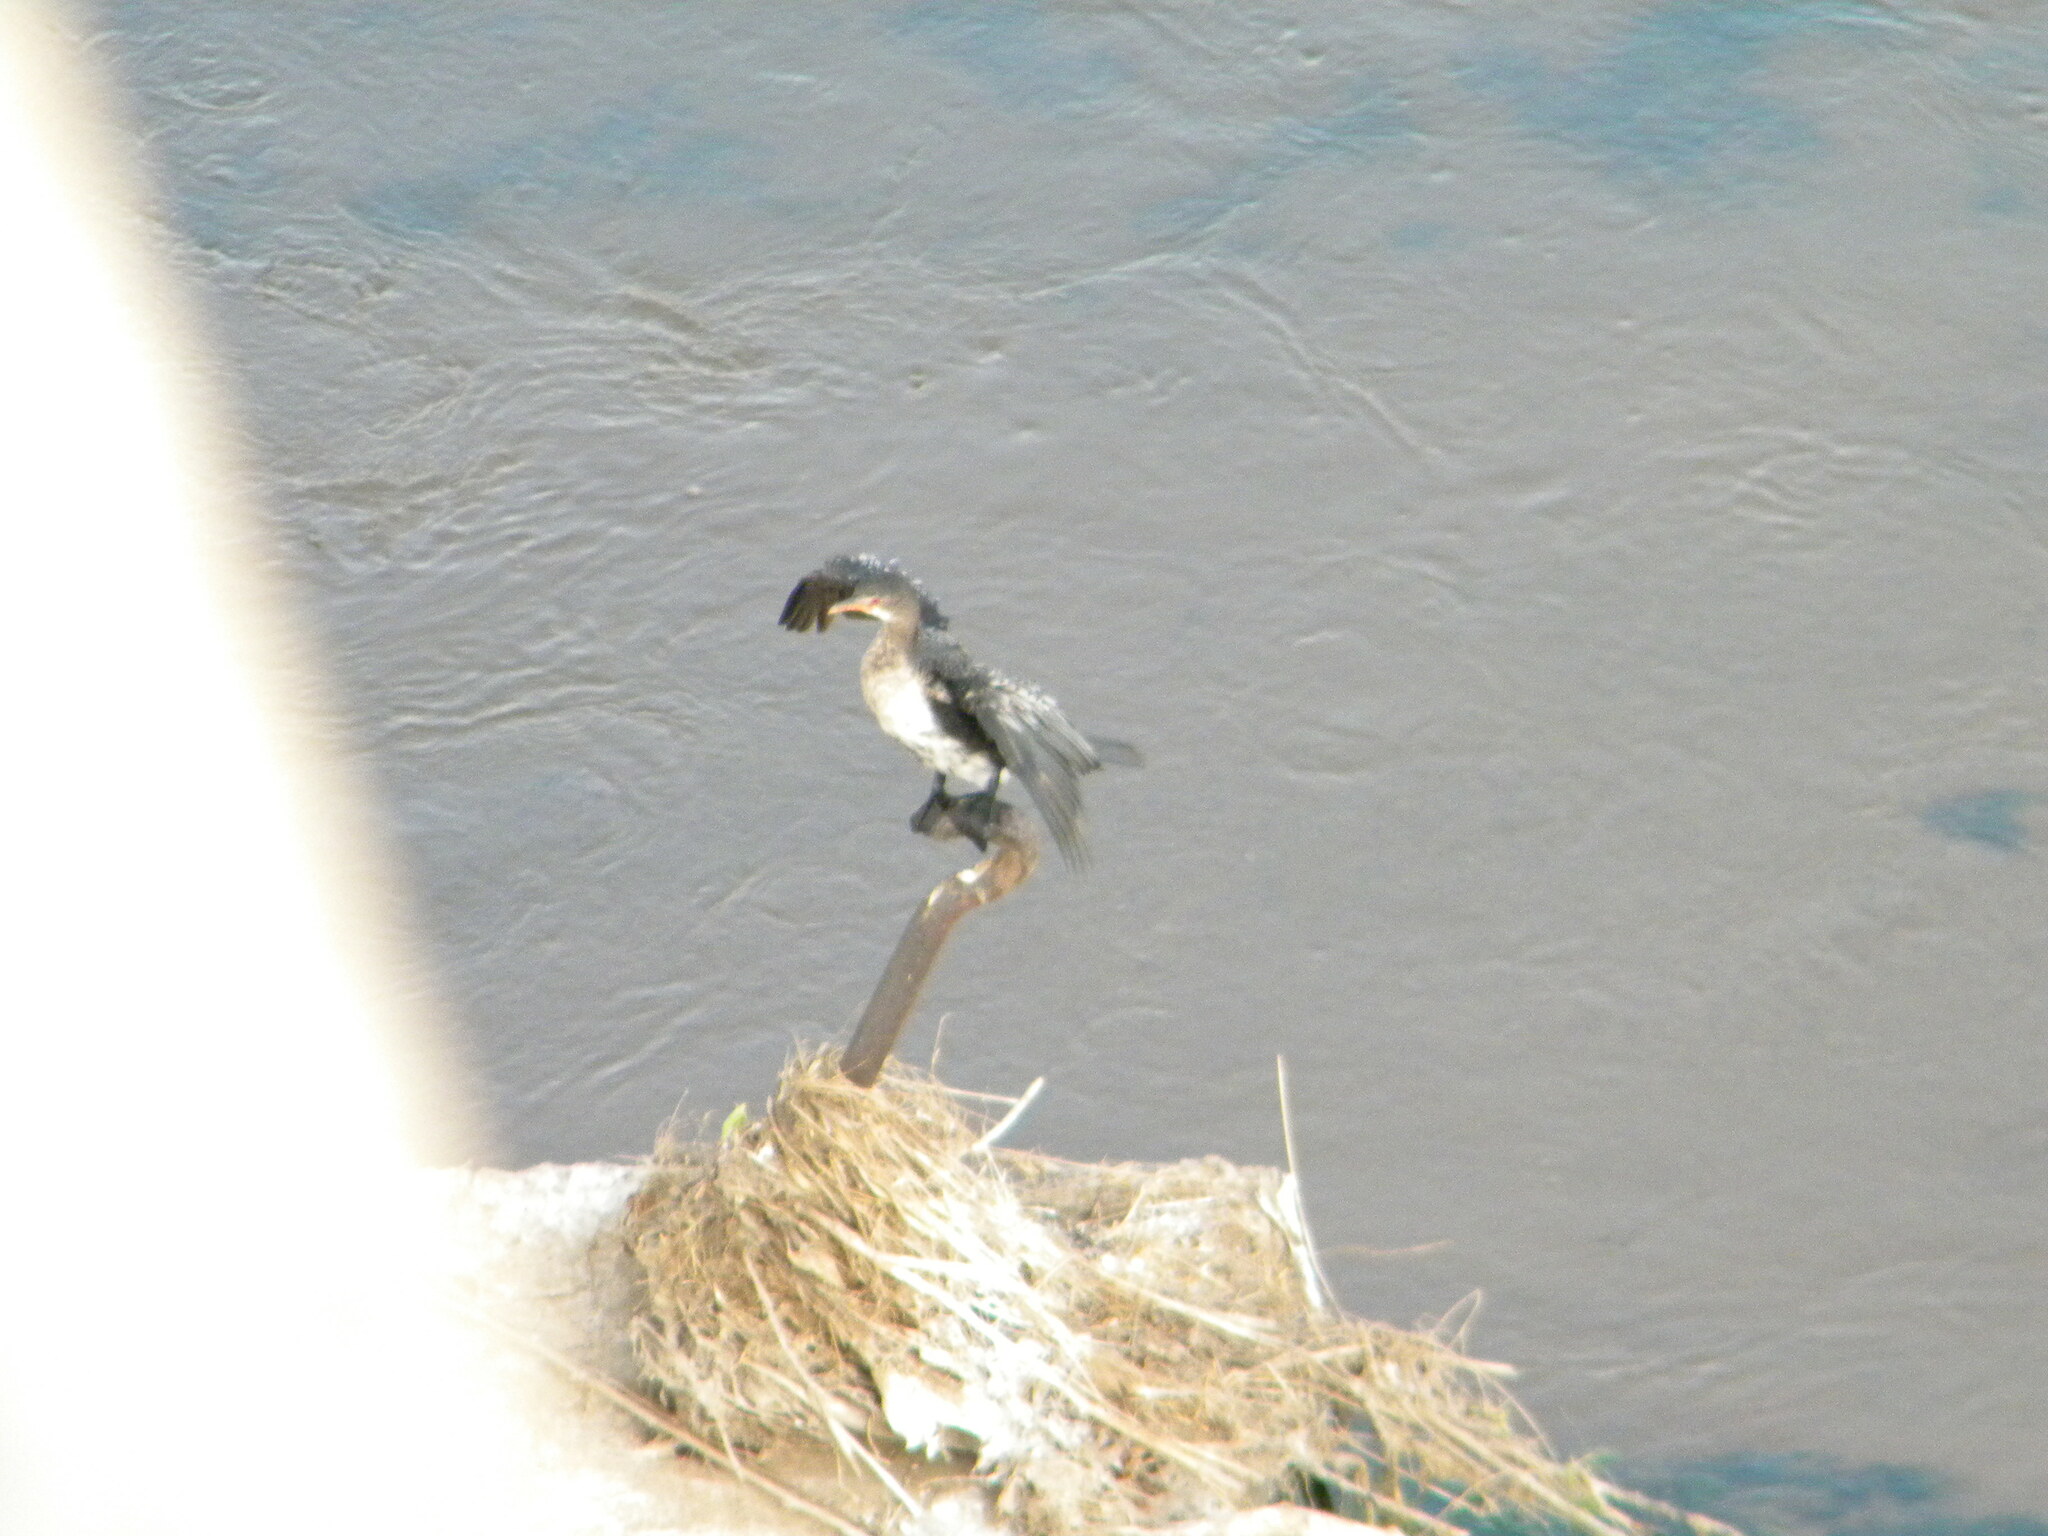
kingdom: Animalia
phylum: Chordata
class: Aves
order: Suliformes
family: Phalacrocoracidae
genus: Microcarbo
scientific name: Microcarbo africanus
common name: Long-tailed cormorant
